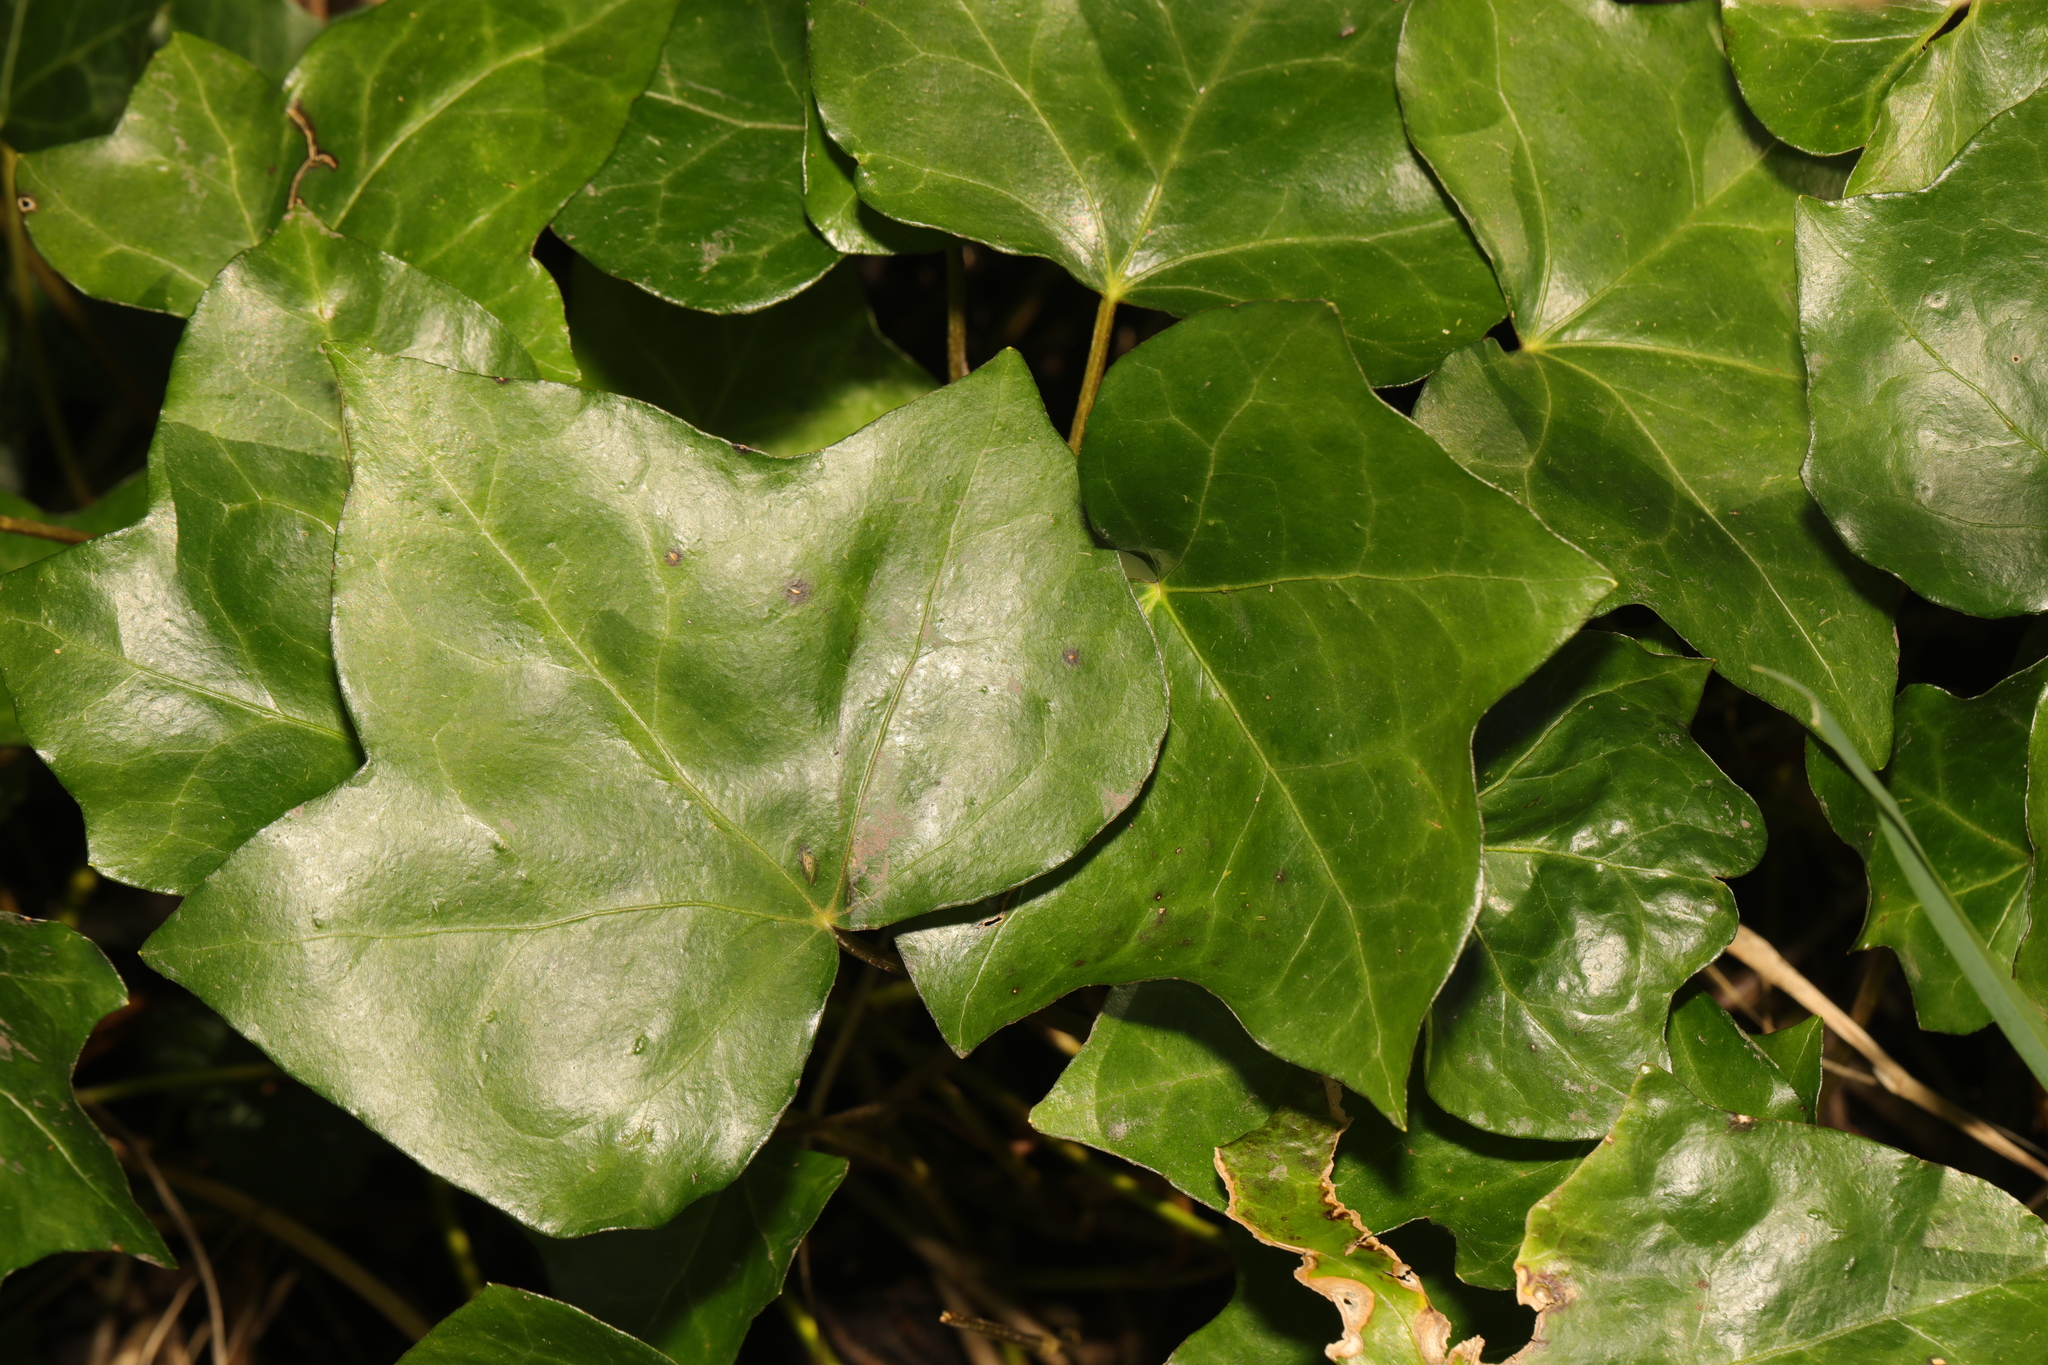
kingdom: Plantae
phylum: Tracheophyta
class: Magnoliopsida
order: Apiales
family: Araliaceae
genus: Hedera
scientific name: Hedera helix
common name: Ivy
